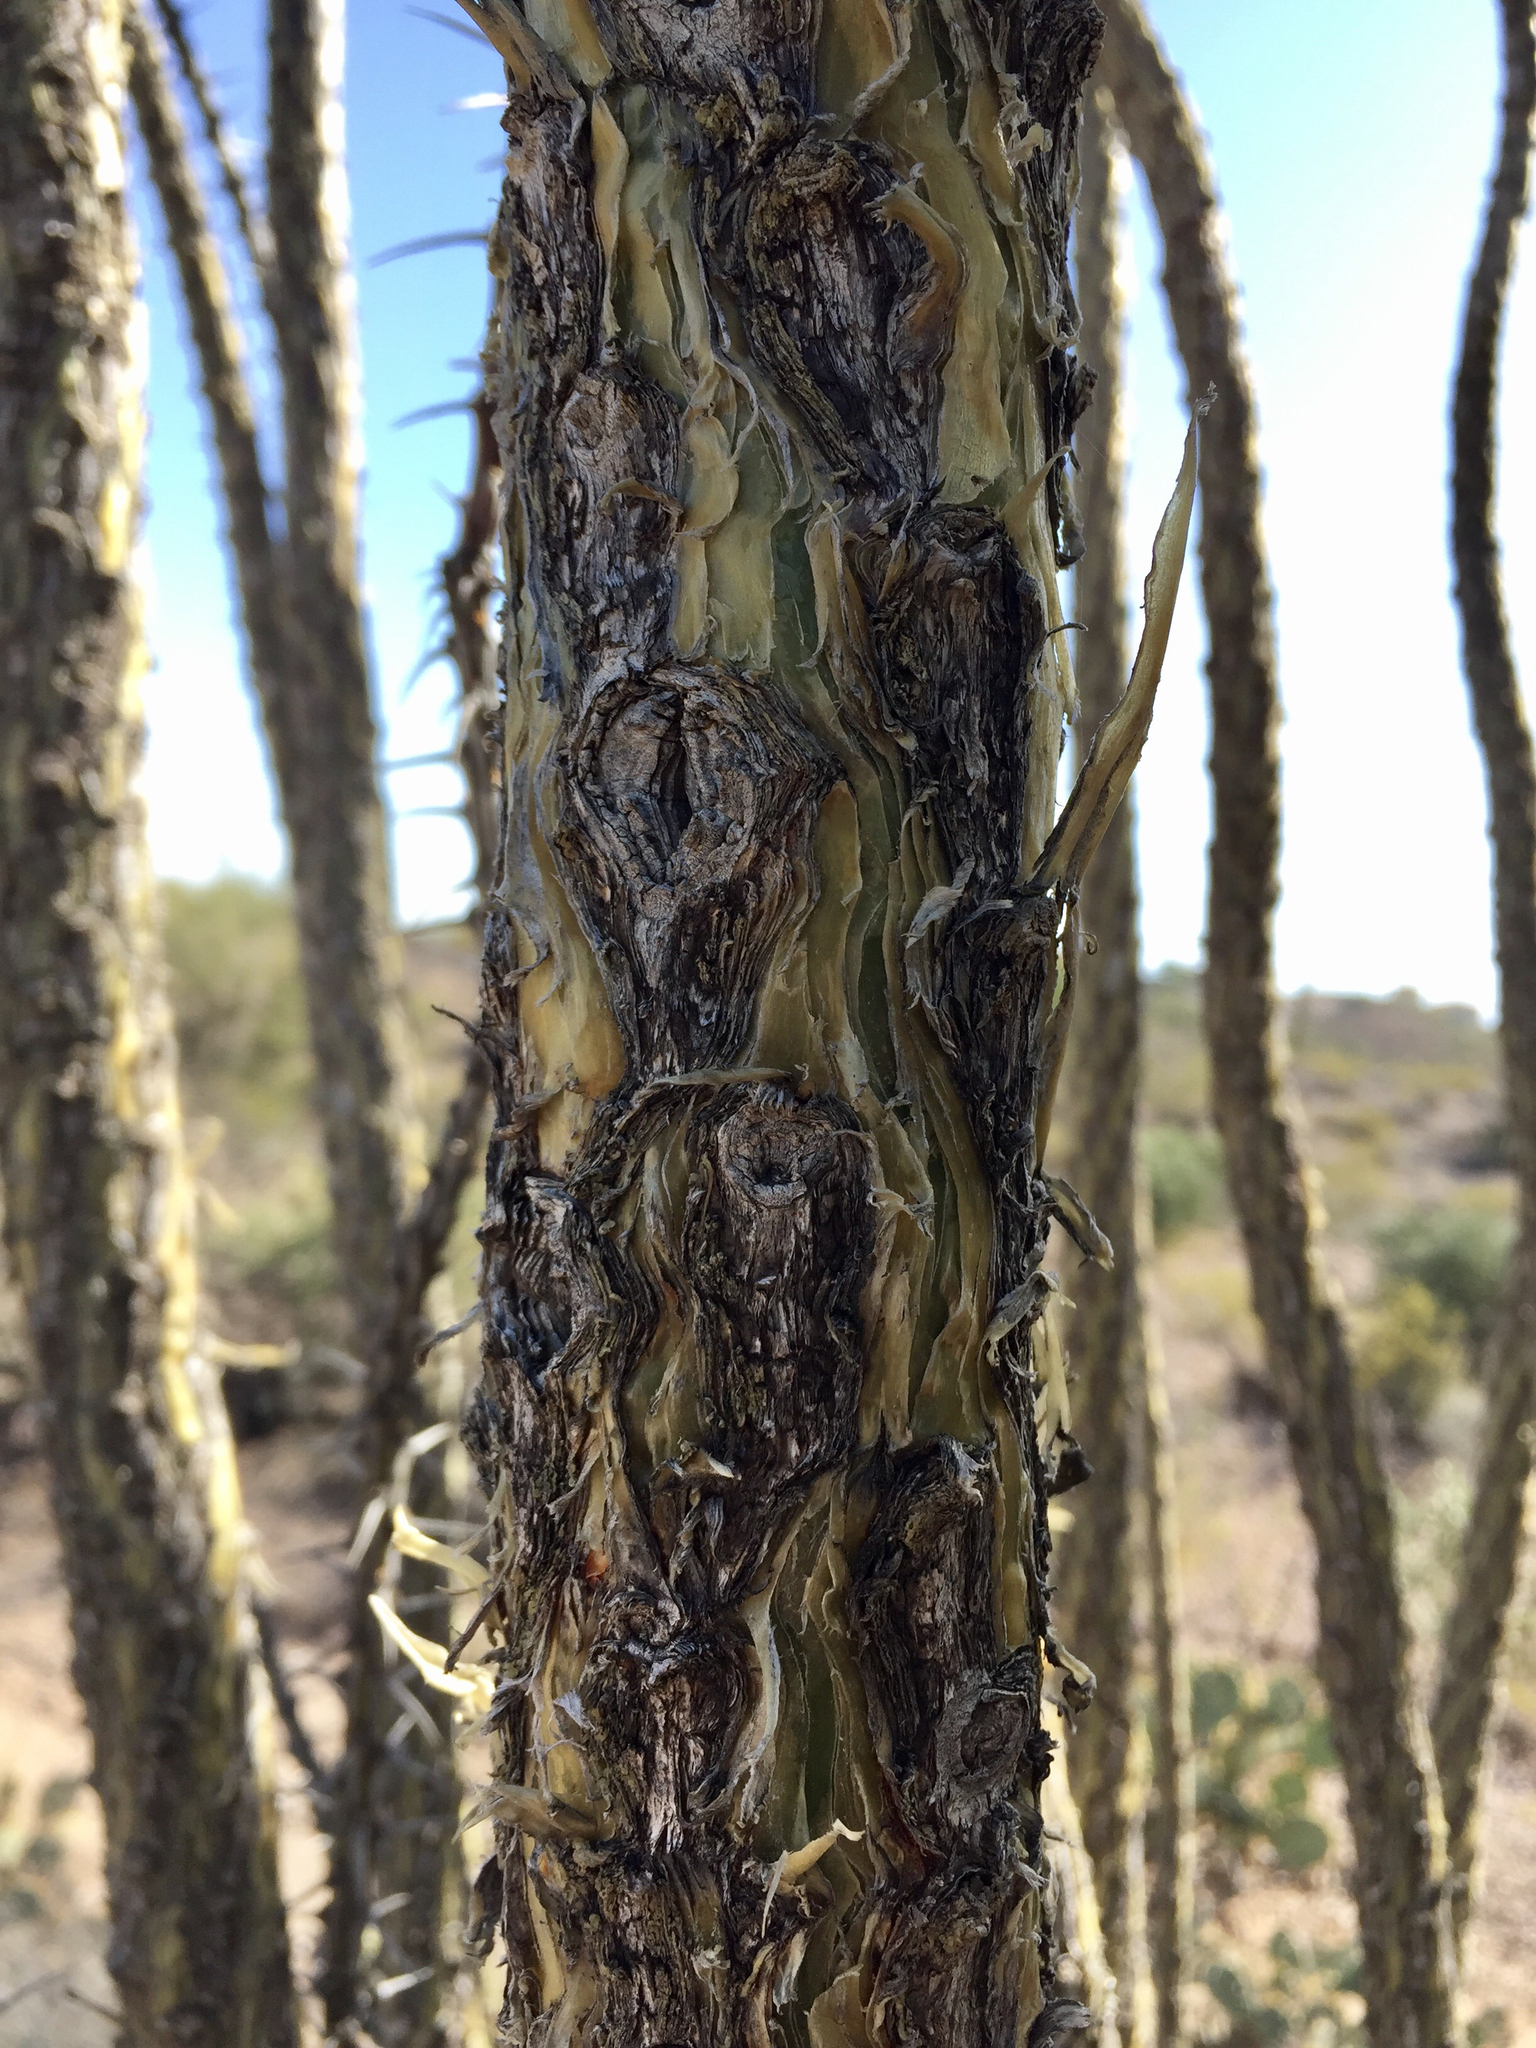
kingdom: Plantae
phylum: Tracheophyta
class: Magnoliopsida
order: Ericales
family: Fouquieriaceae
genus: Fouquieria
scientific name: Fouquieria splendens
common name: Vine-cactus
